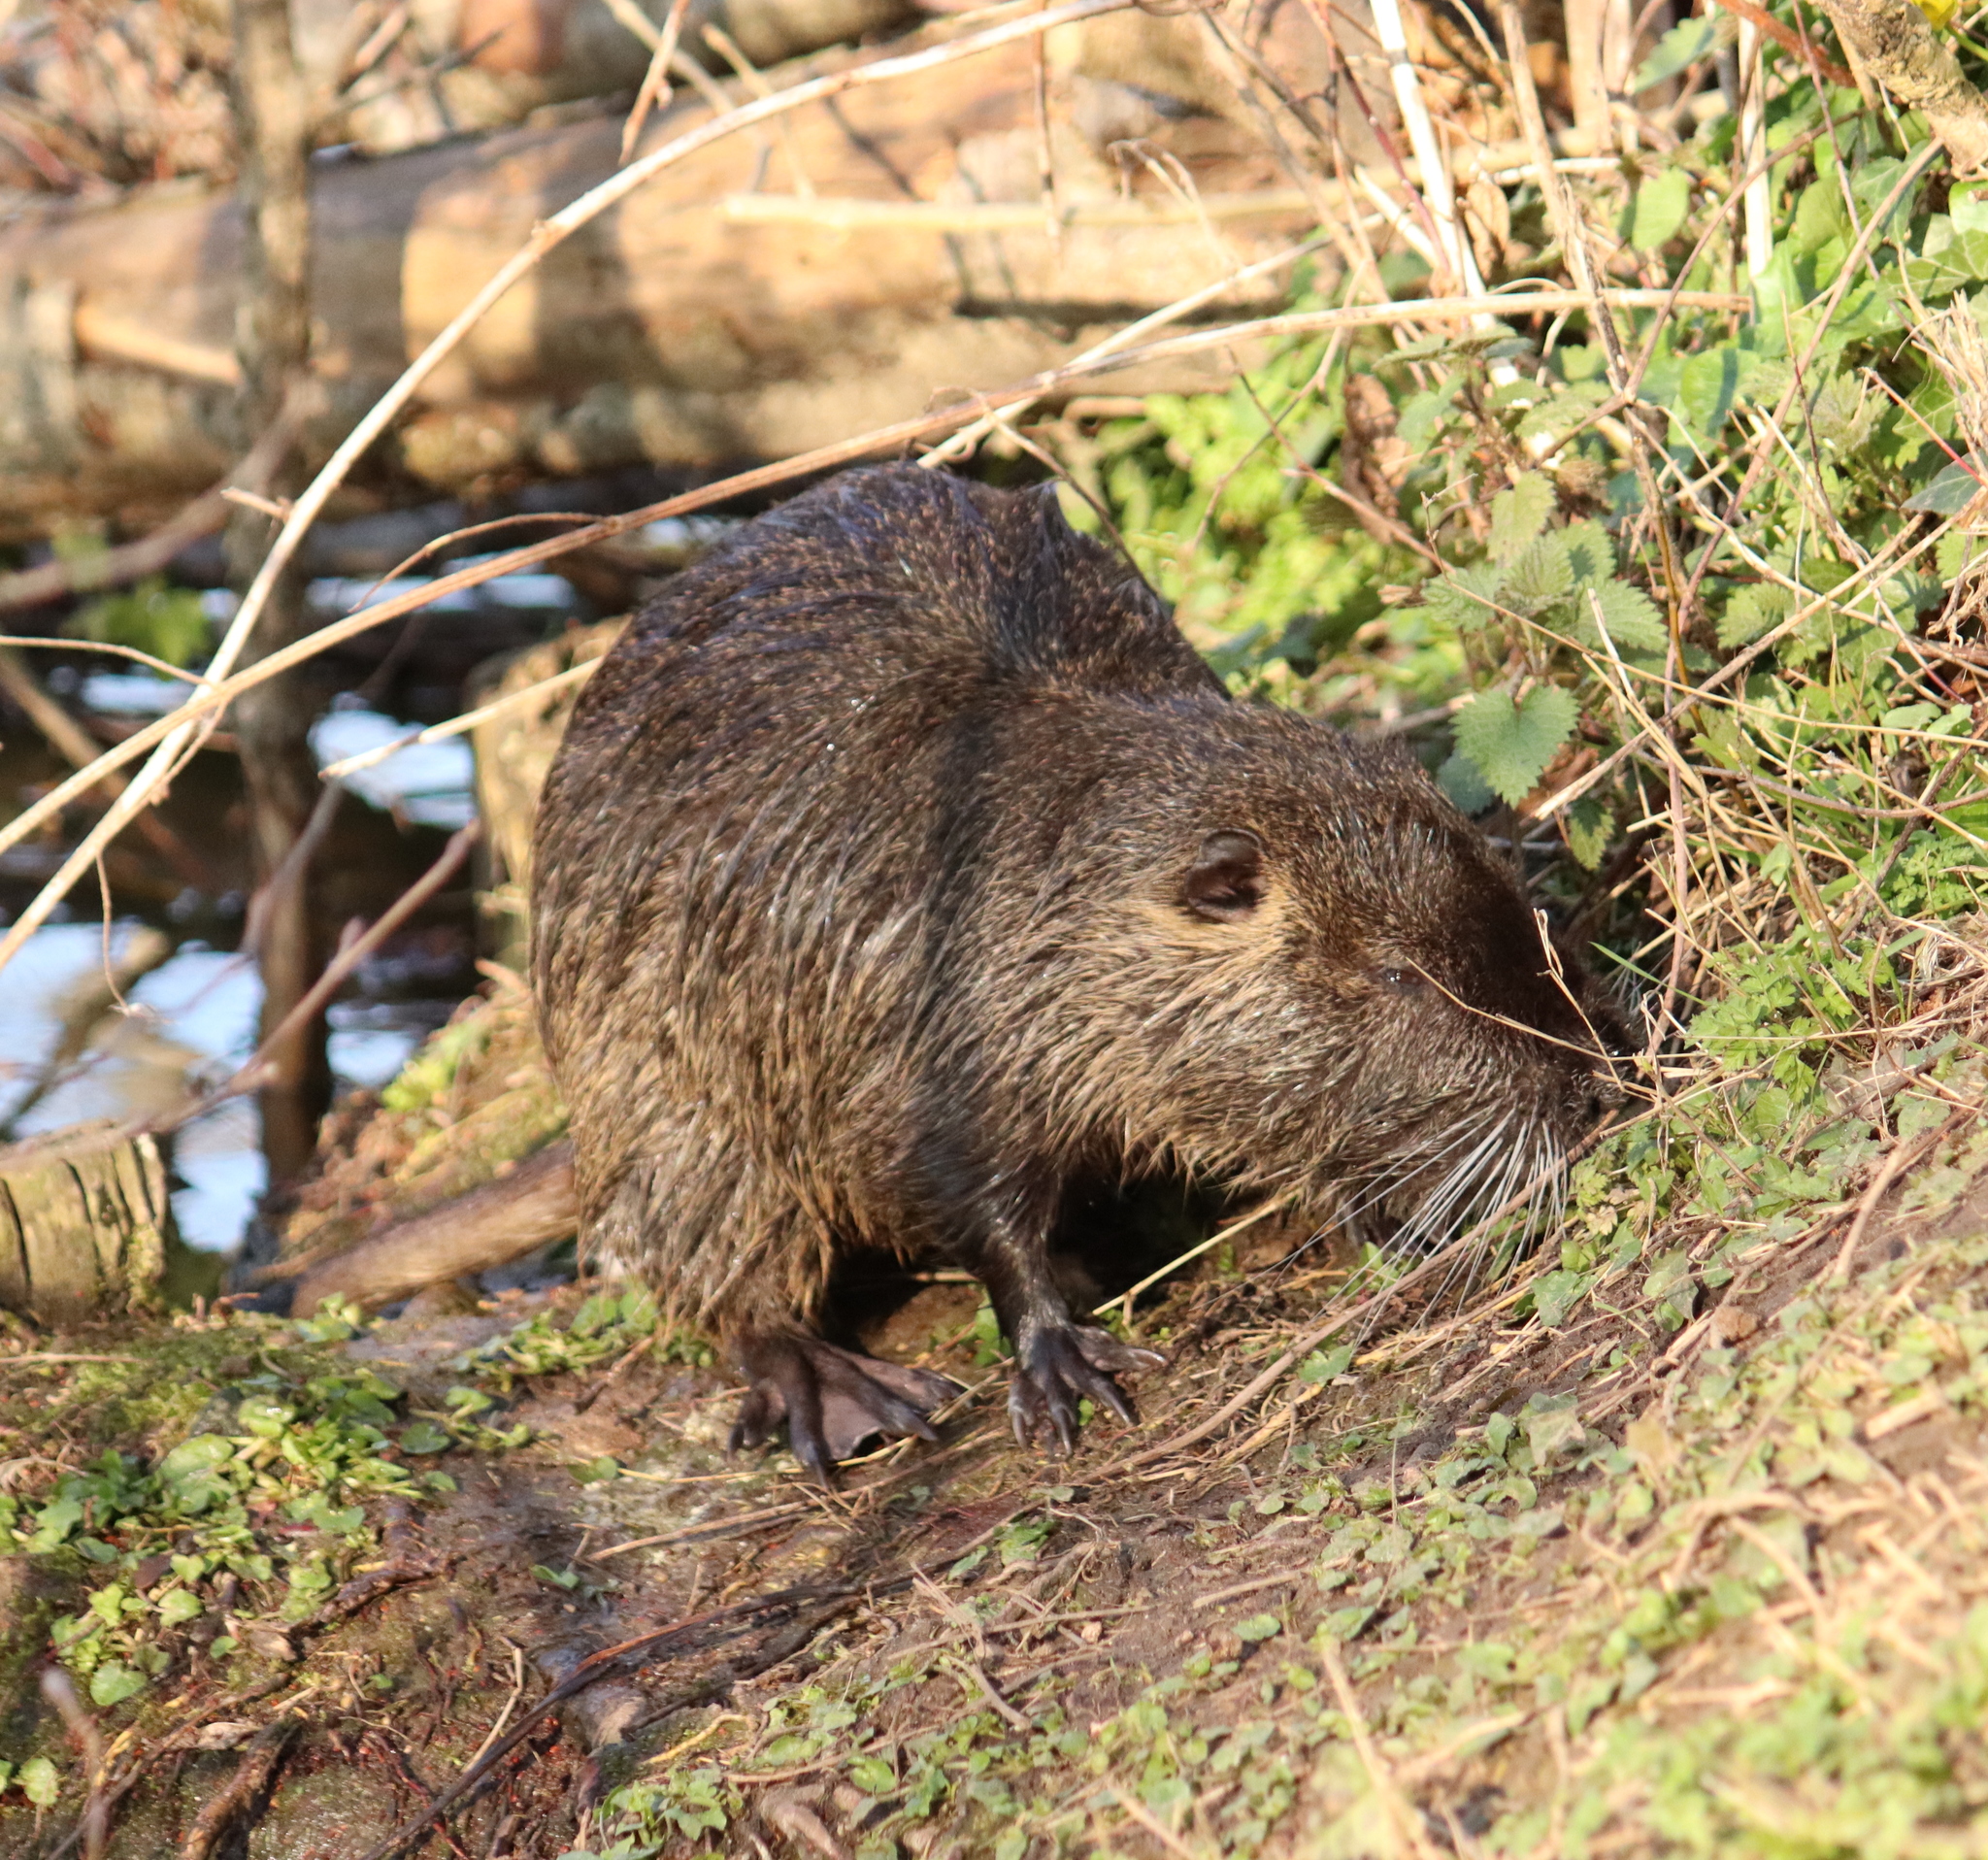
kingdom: Animalia
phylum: Chordata
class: Mammalia
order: Rodentia
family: Myocastoridae
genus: Myocastor
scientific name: Myocastor coypus
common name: Coypu
